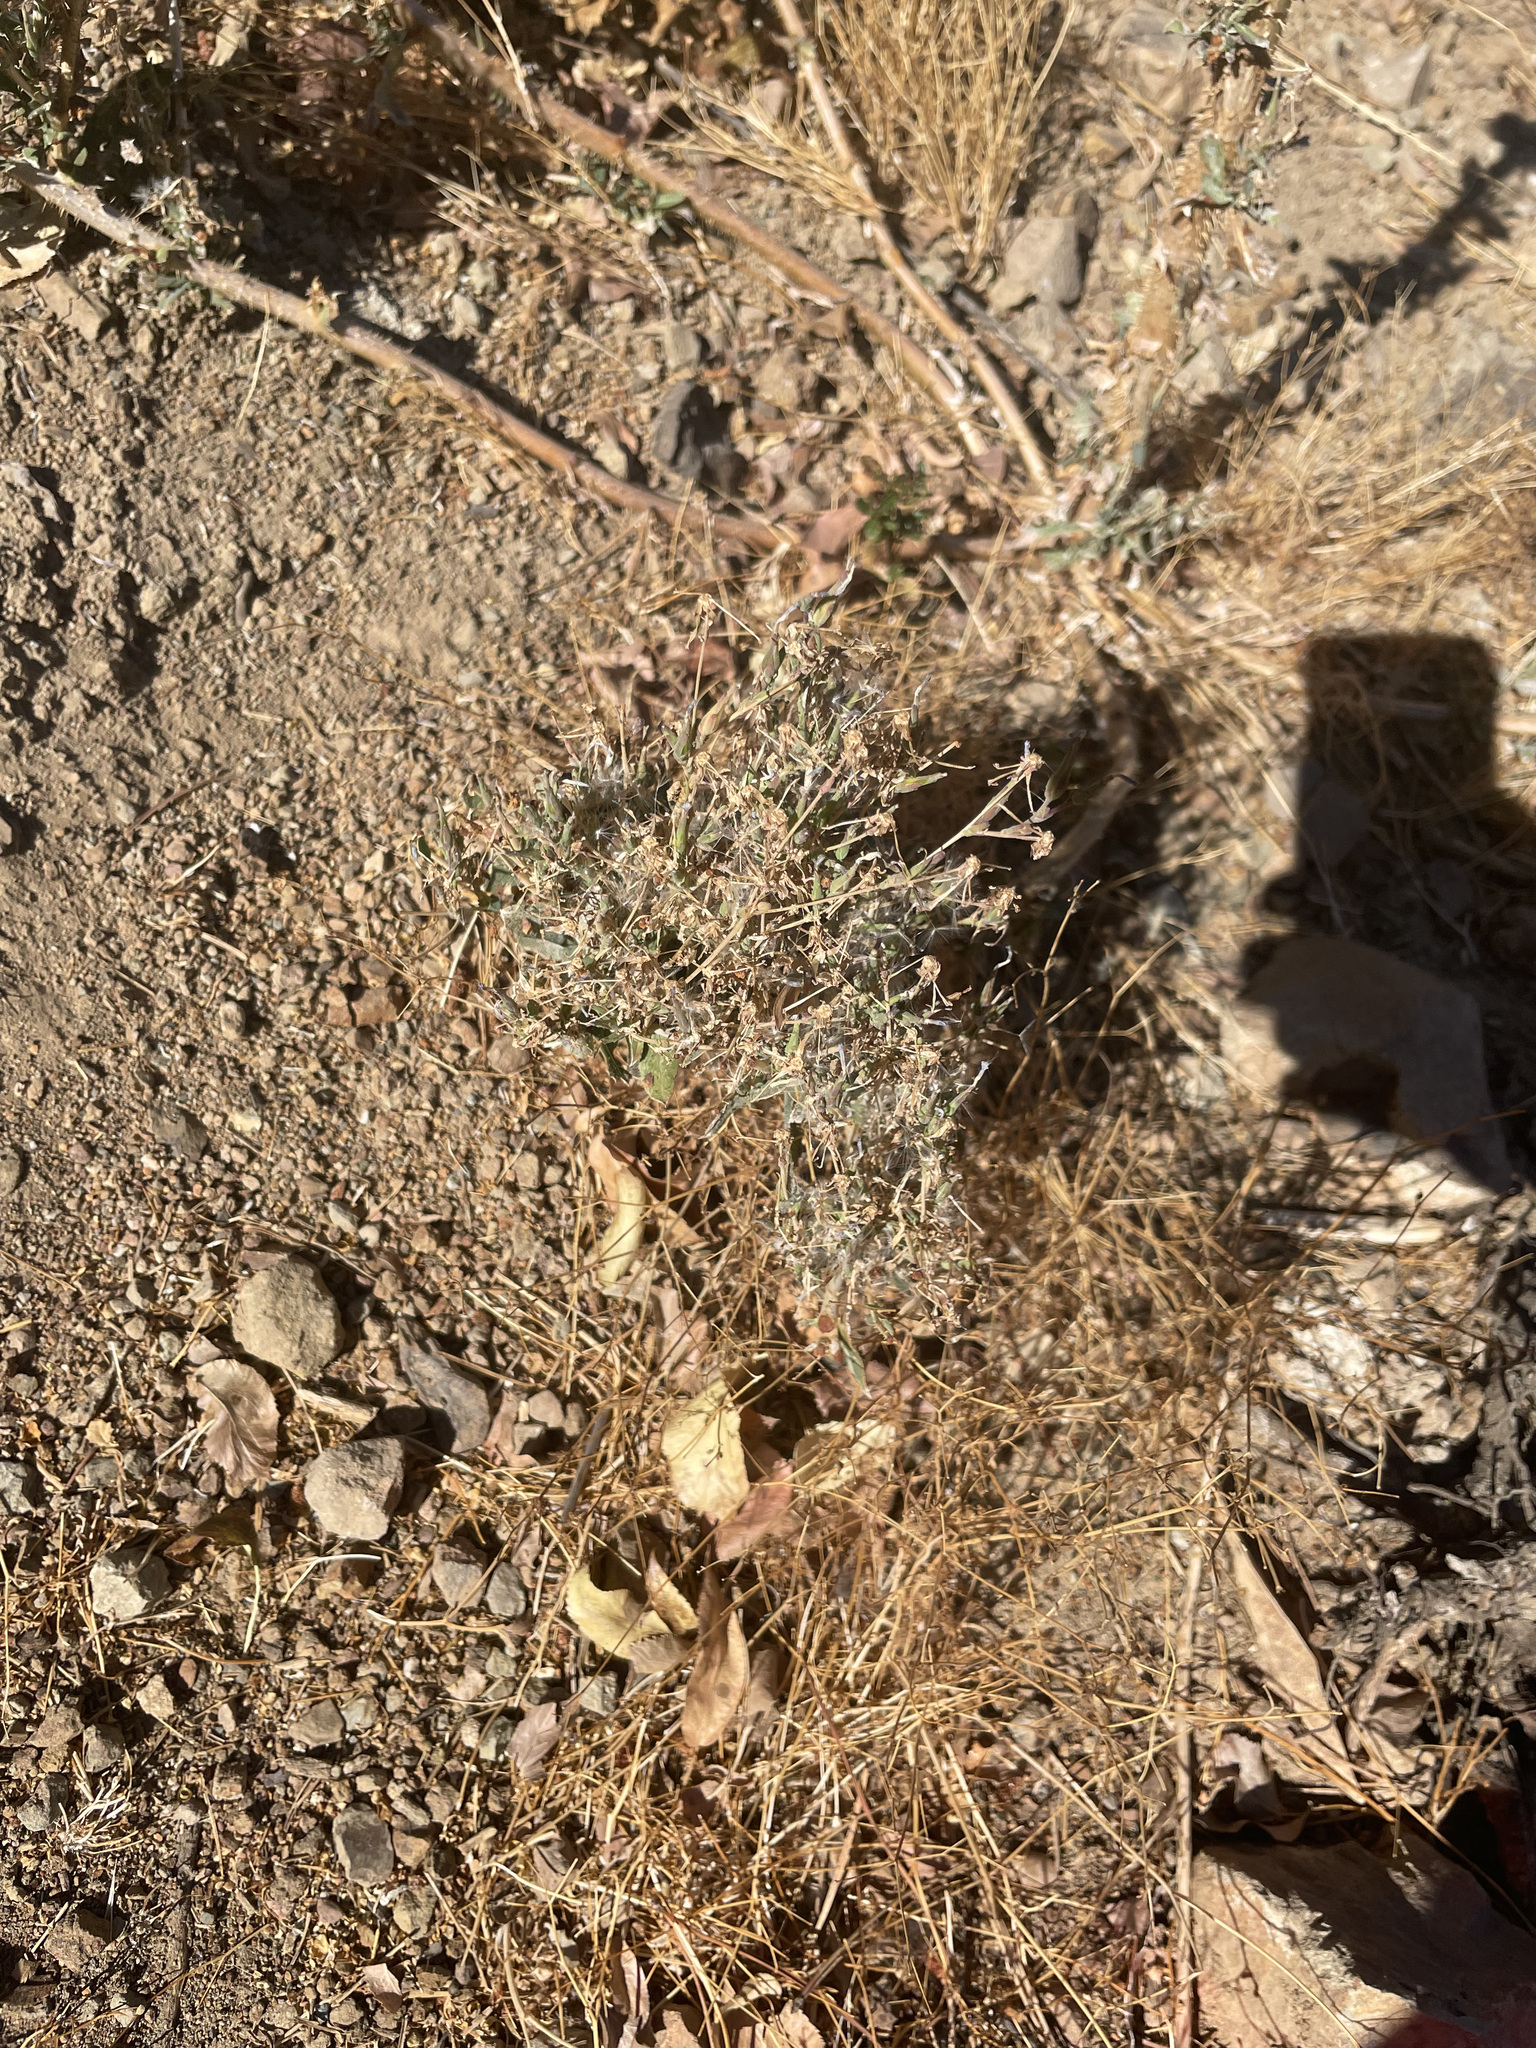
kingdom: Plantae
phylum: Tracheophyta
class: Magnoliopsida
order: Asterales
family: Asteraceae
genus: Lactuca
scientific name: Lactuca serriola
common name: Prickly lettuce
